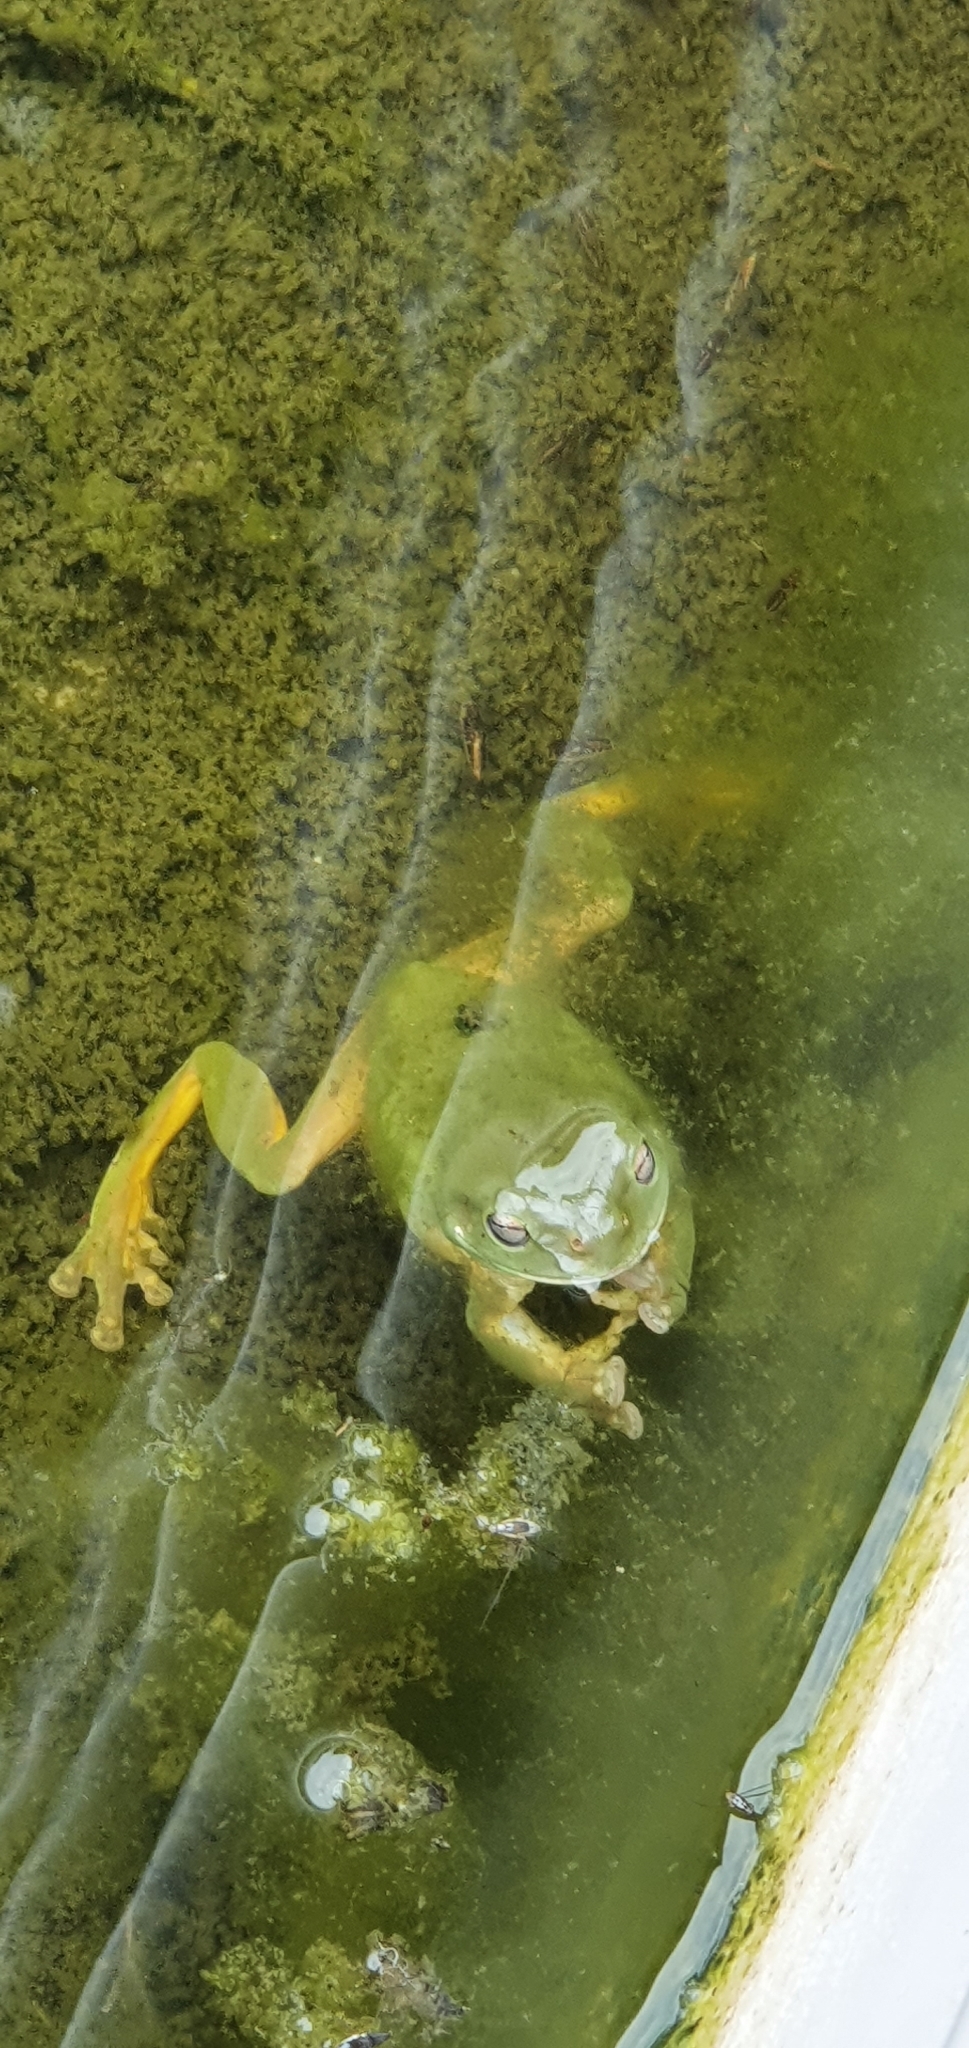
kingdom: Animalia
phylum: Chordata
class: Amphibia
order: Anura
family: Pelodryadidae
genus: Ranoidea
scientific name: Ranoidea caerulea
